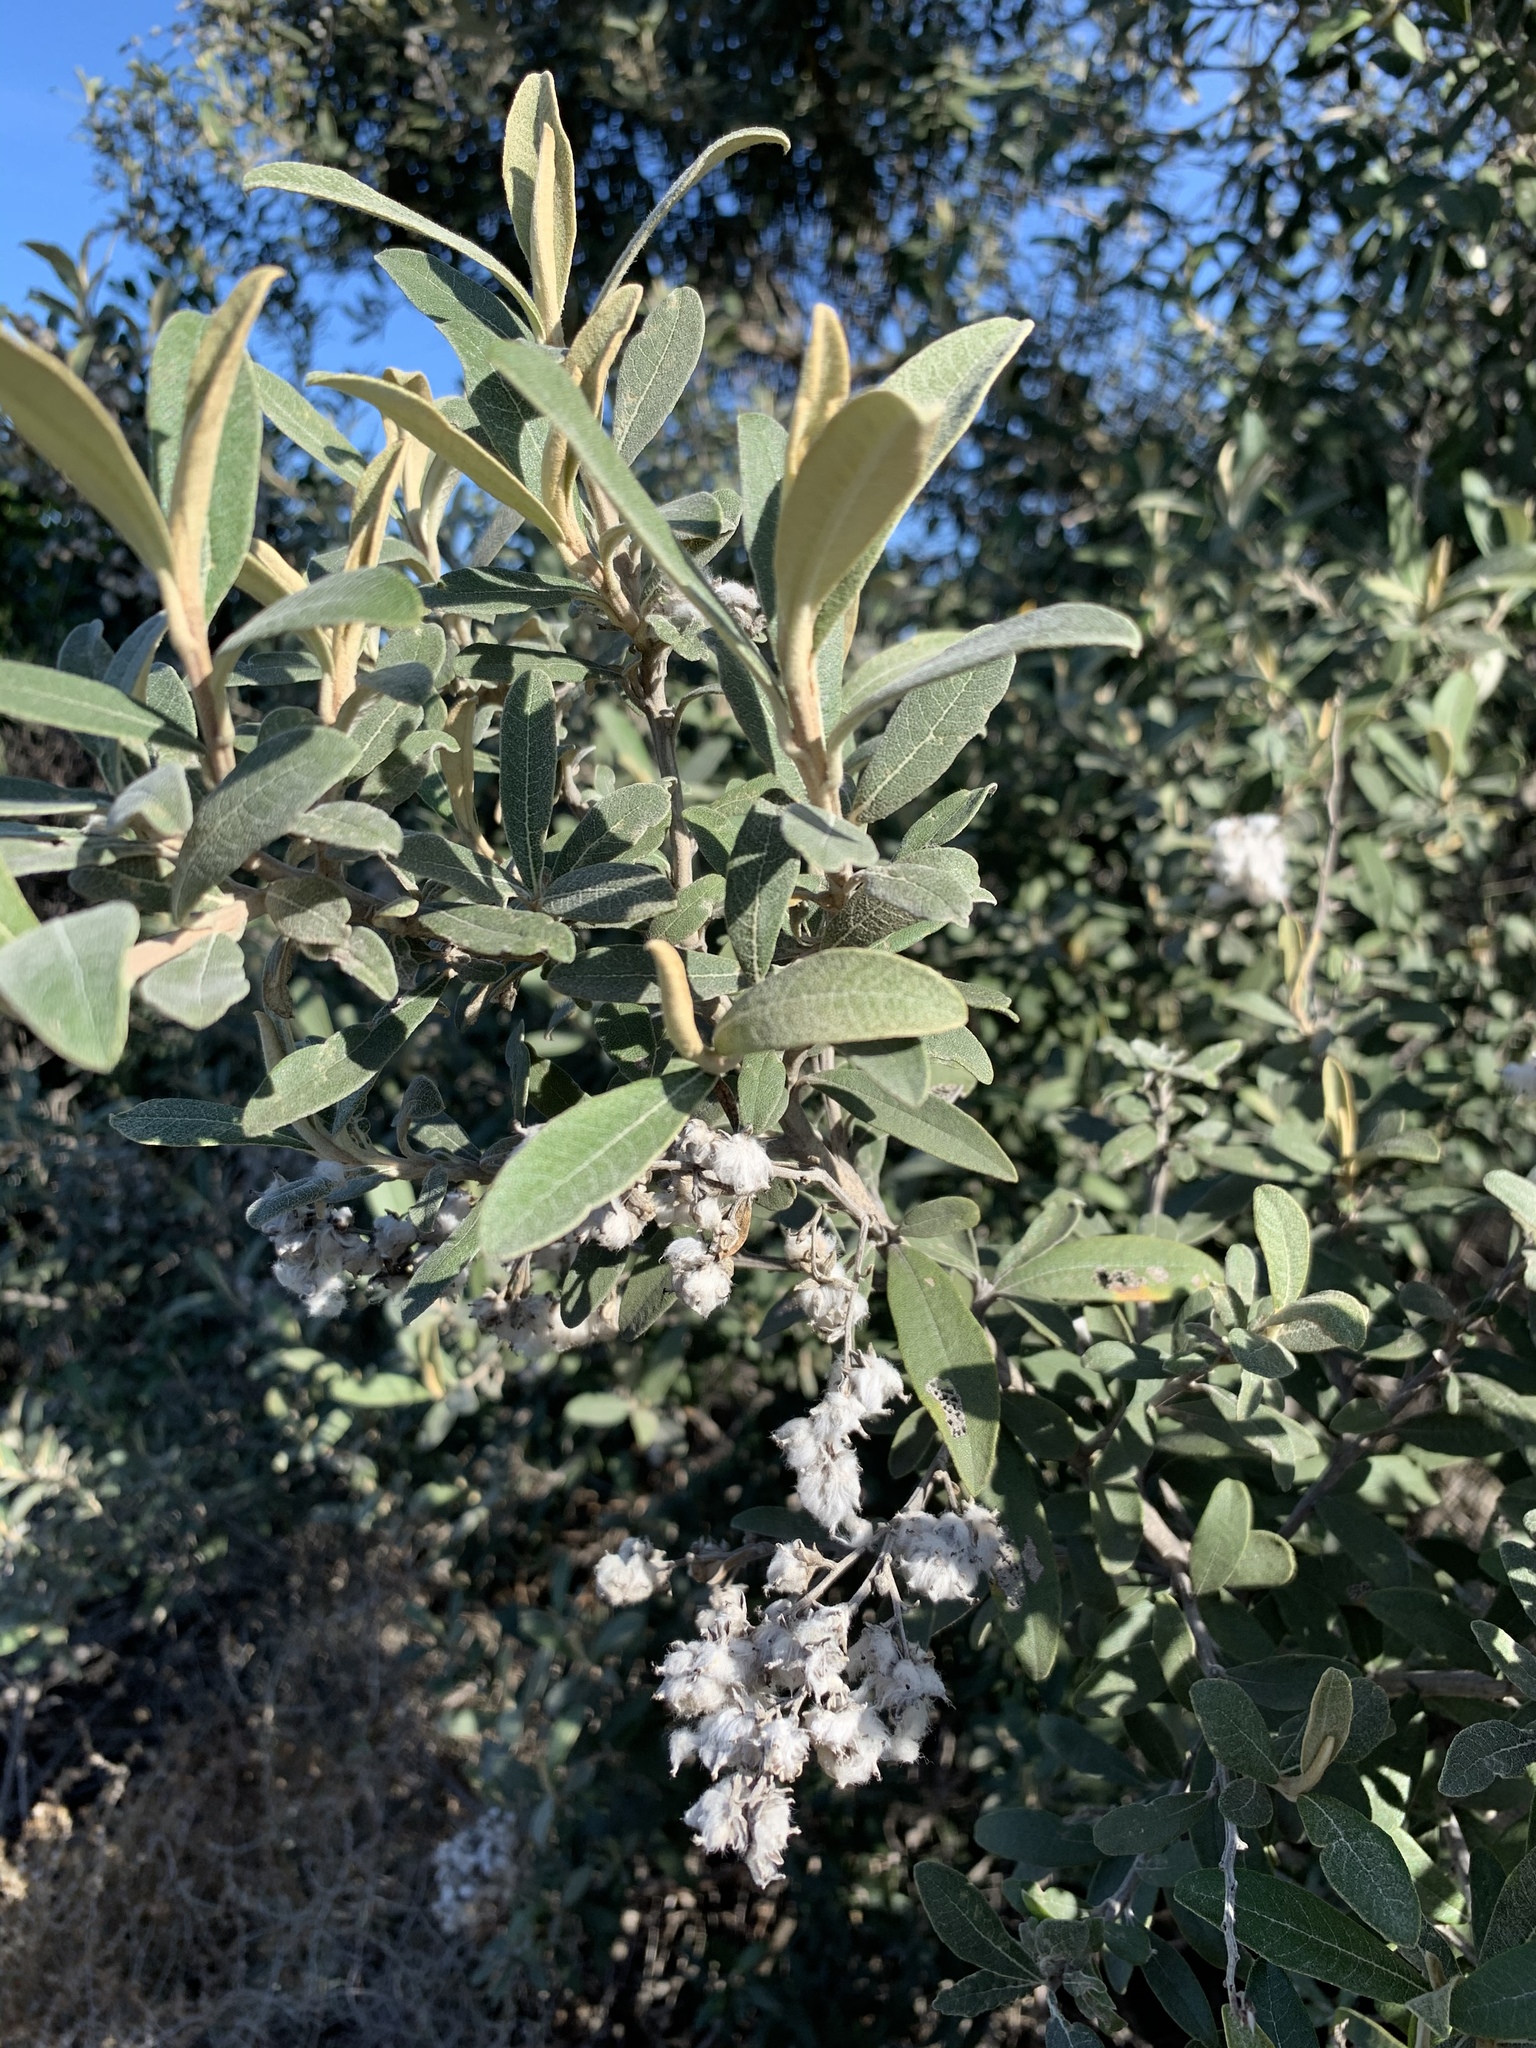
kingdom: Plantae
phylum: Tracheophyta
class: Magnoliopsida
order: Asterales
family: Asteraceae
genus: Tarchonanthus
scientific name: Tarchonanthus littoralis
